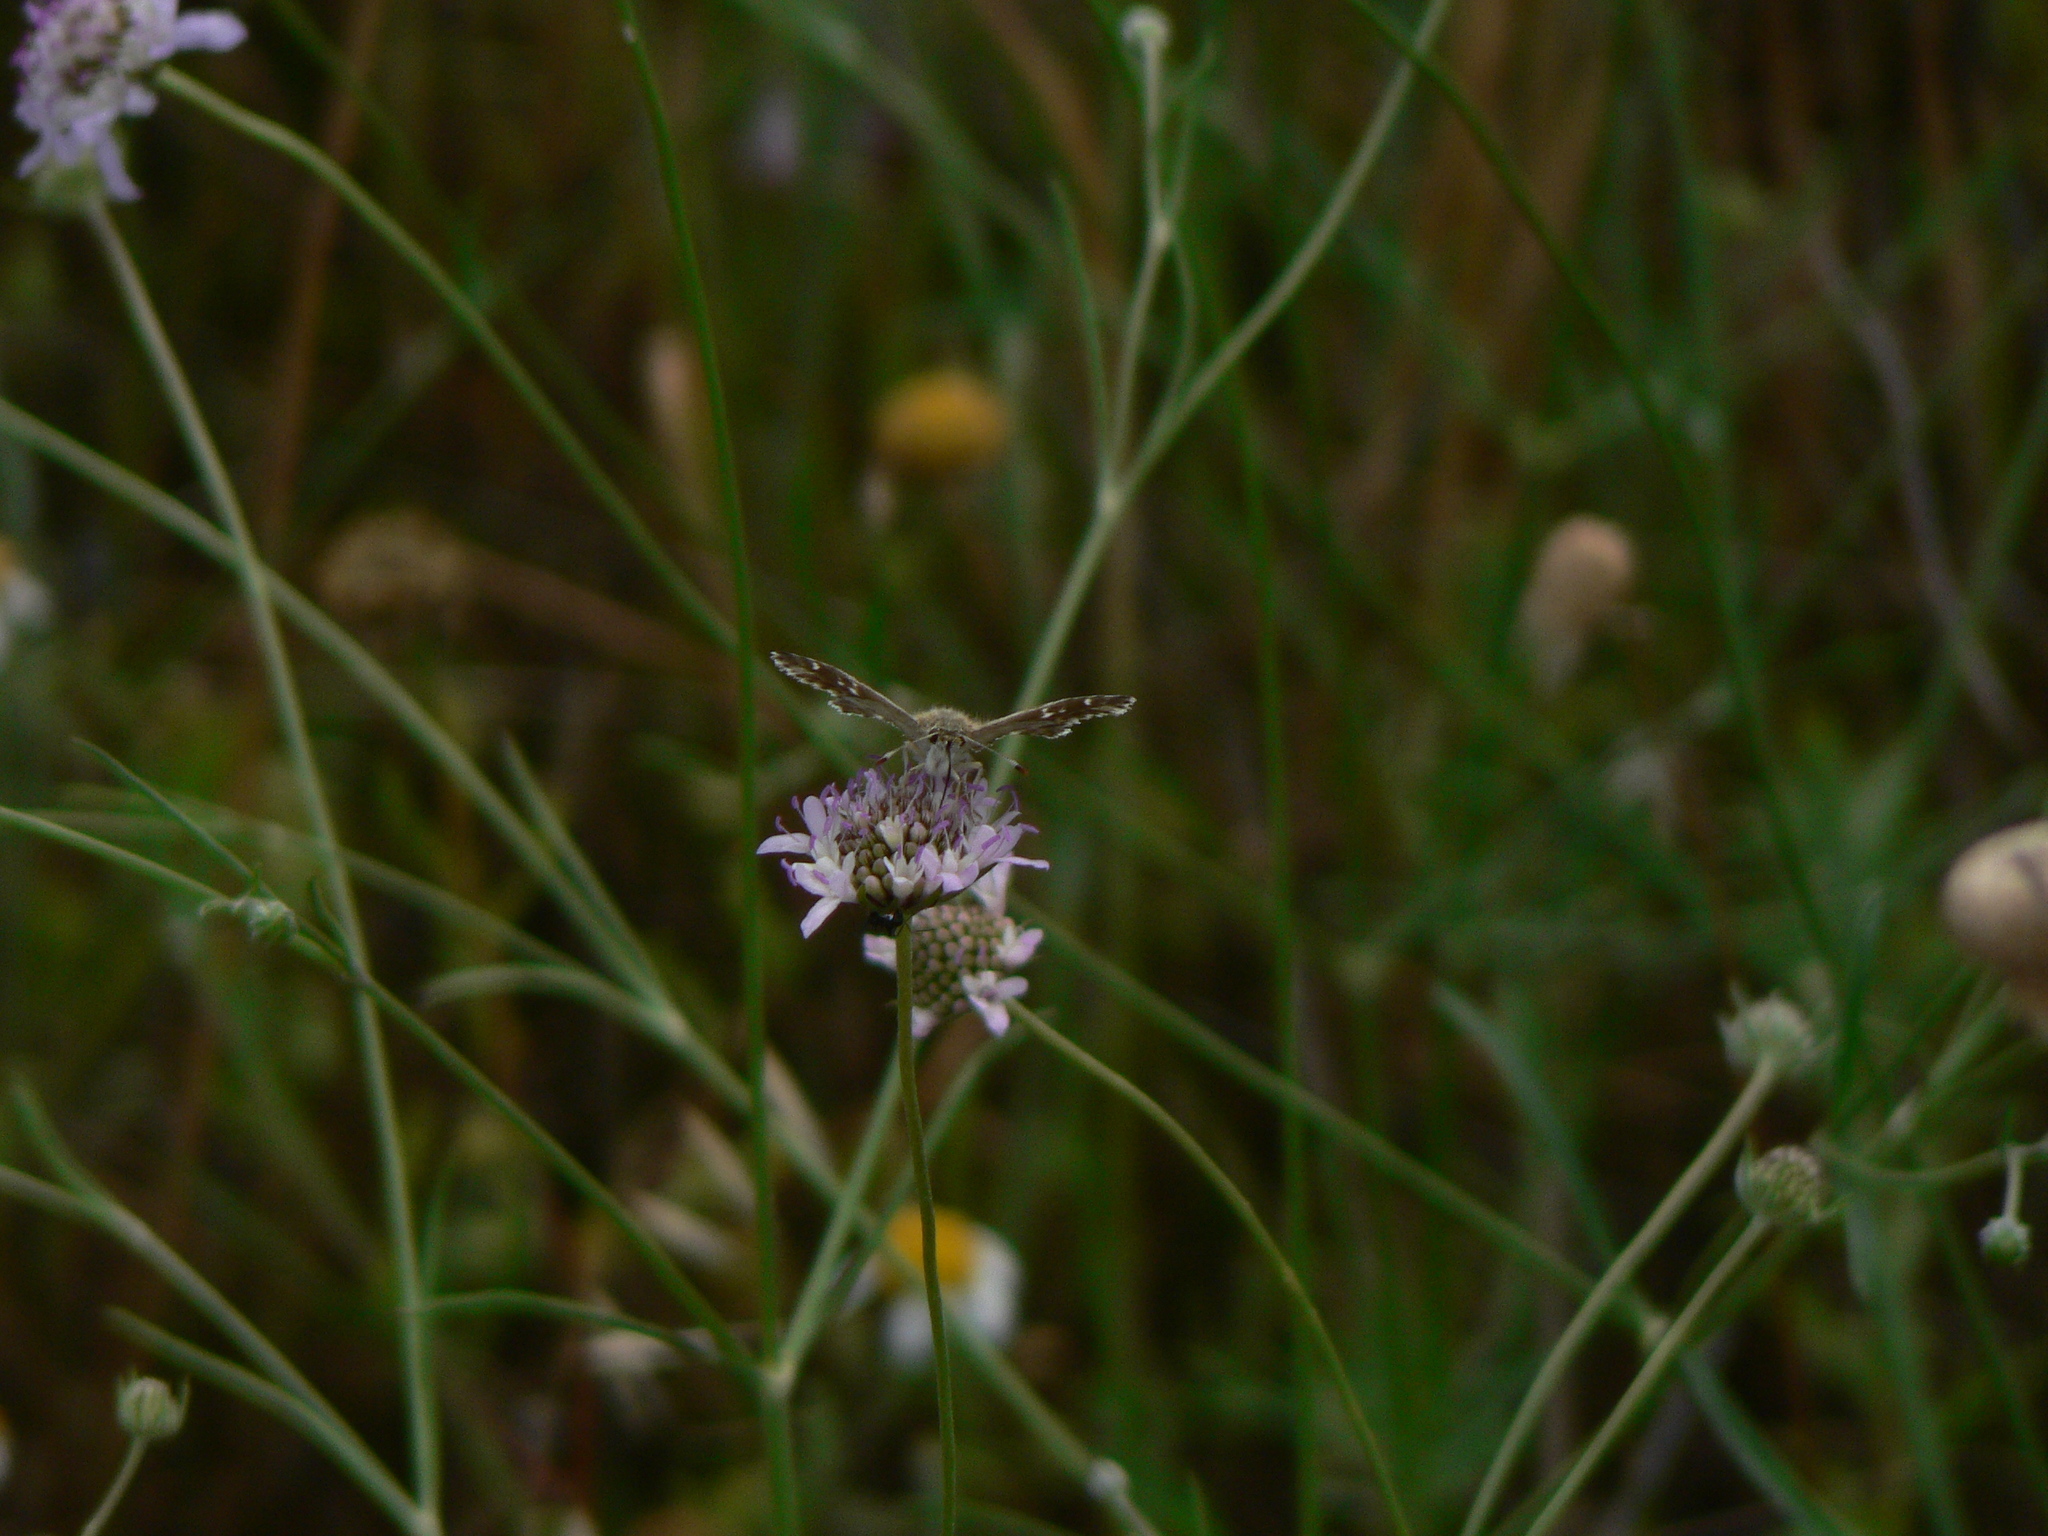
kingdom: Animalia
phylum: Arthropoda
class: Insecta
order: Lepidoptera
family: Hesperiidae
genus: Carcharodus
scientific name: Carcharodus alceae
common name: Mallow skipper
